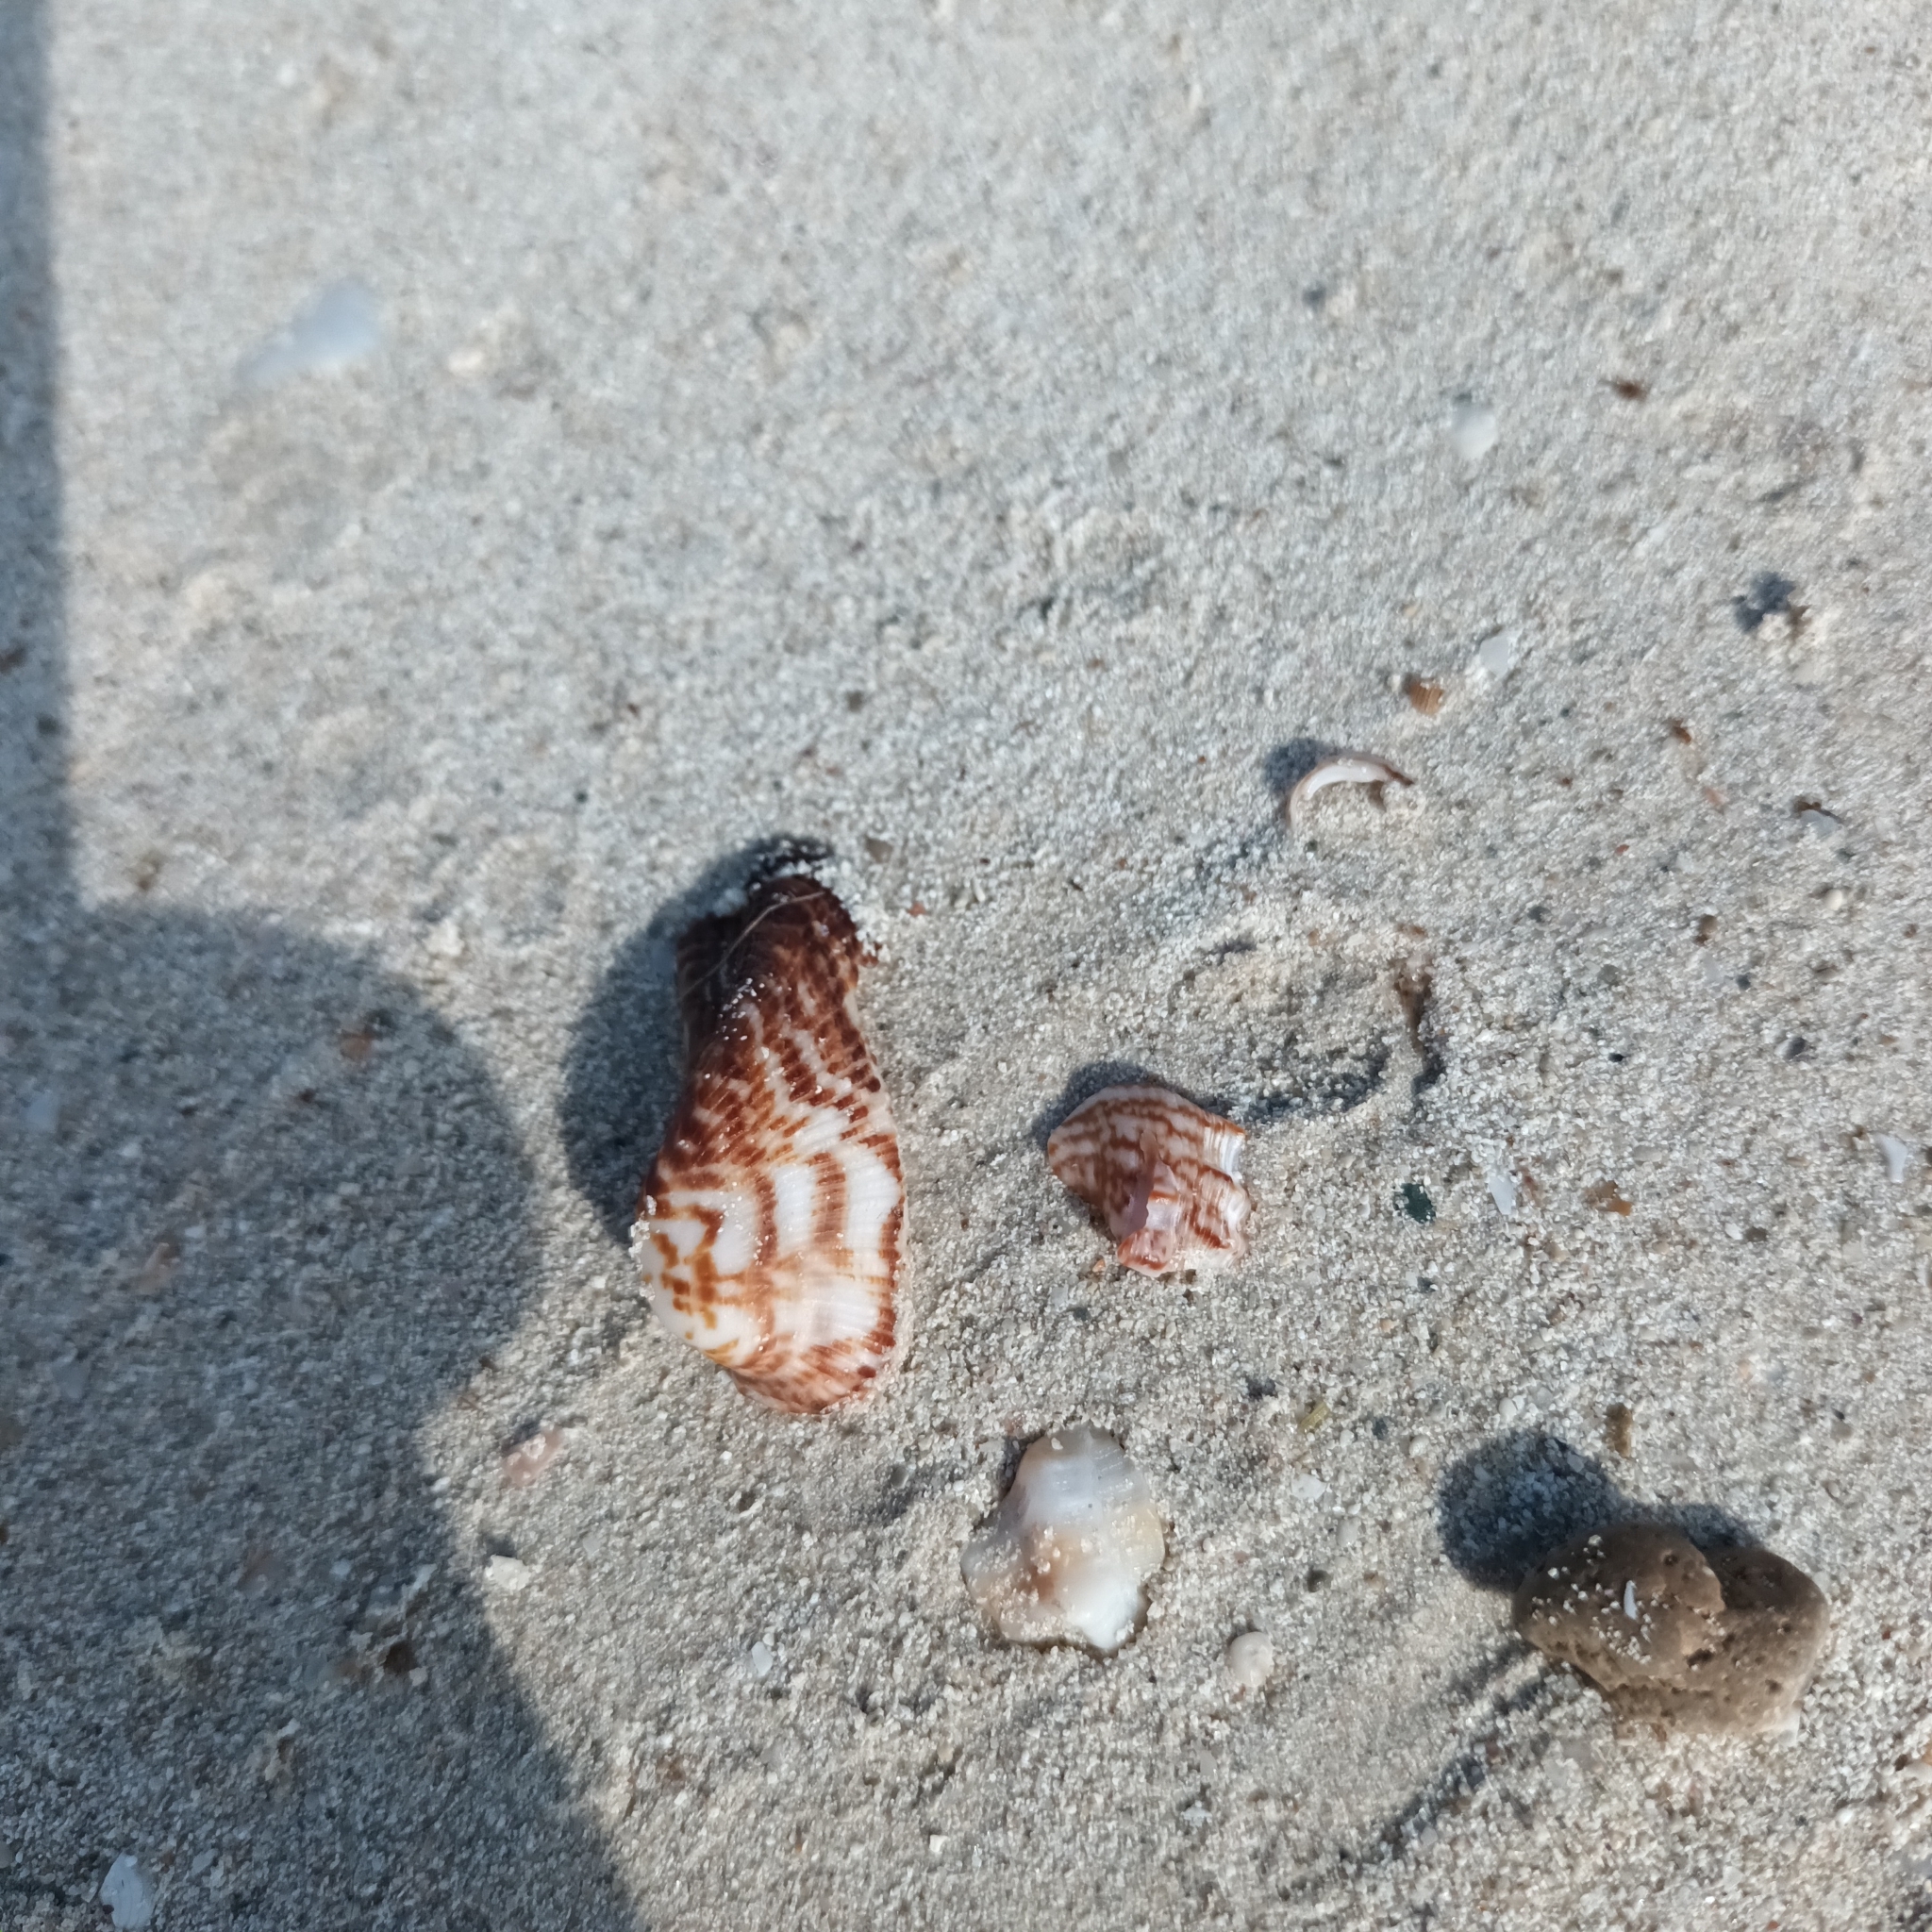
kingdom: Animalia
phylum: Mollusca
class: Bivalvia
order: Arcida
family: Arcidae
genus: Arca
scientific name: Arca noae
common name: Noah's arch
